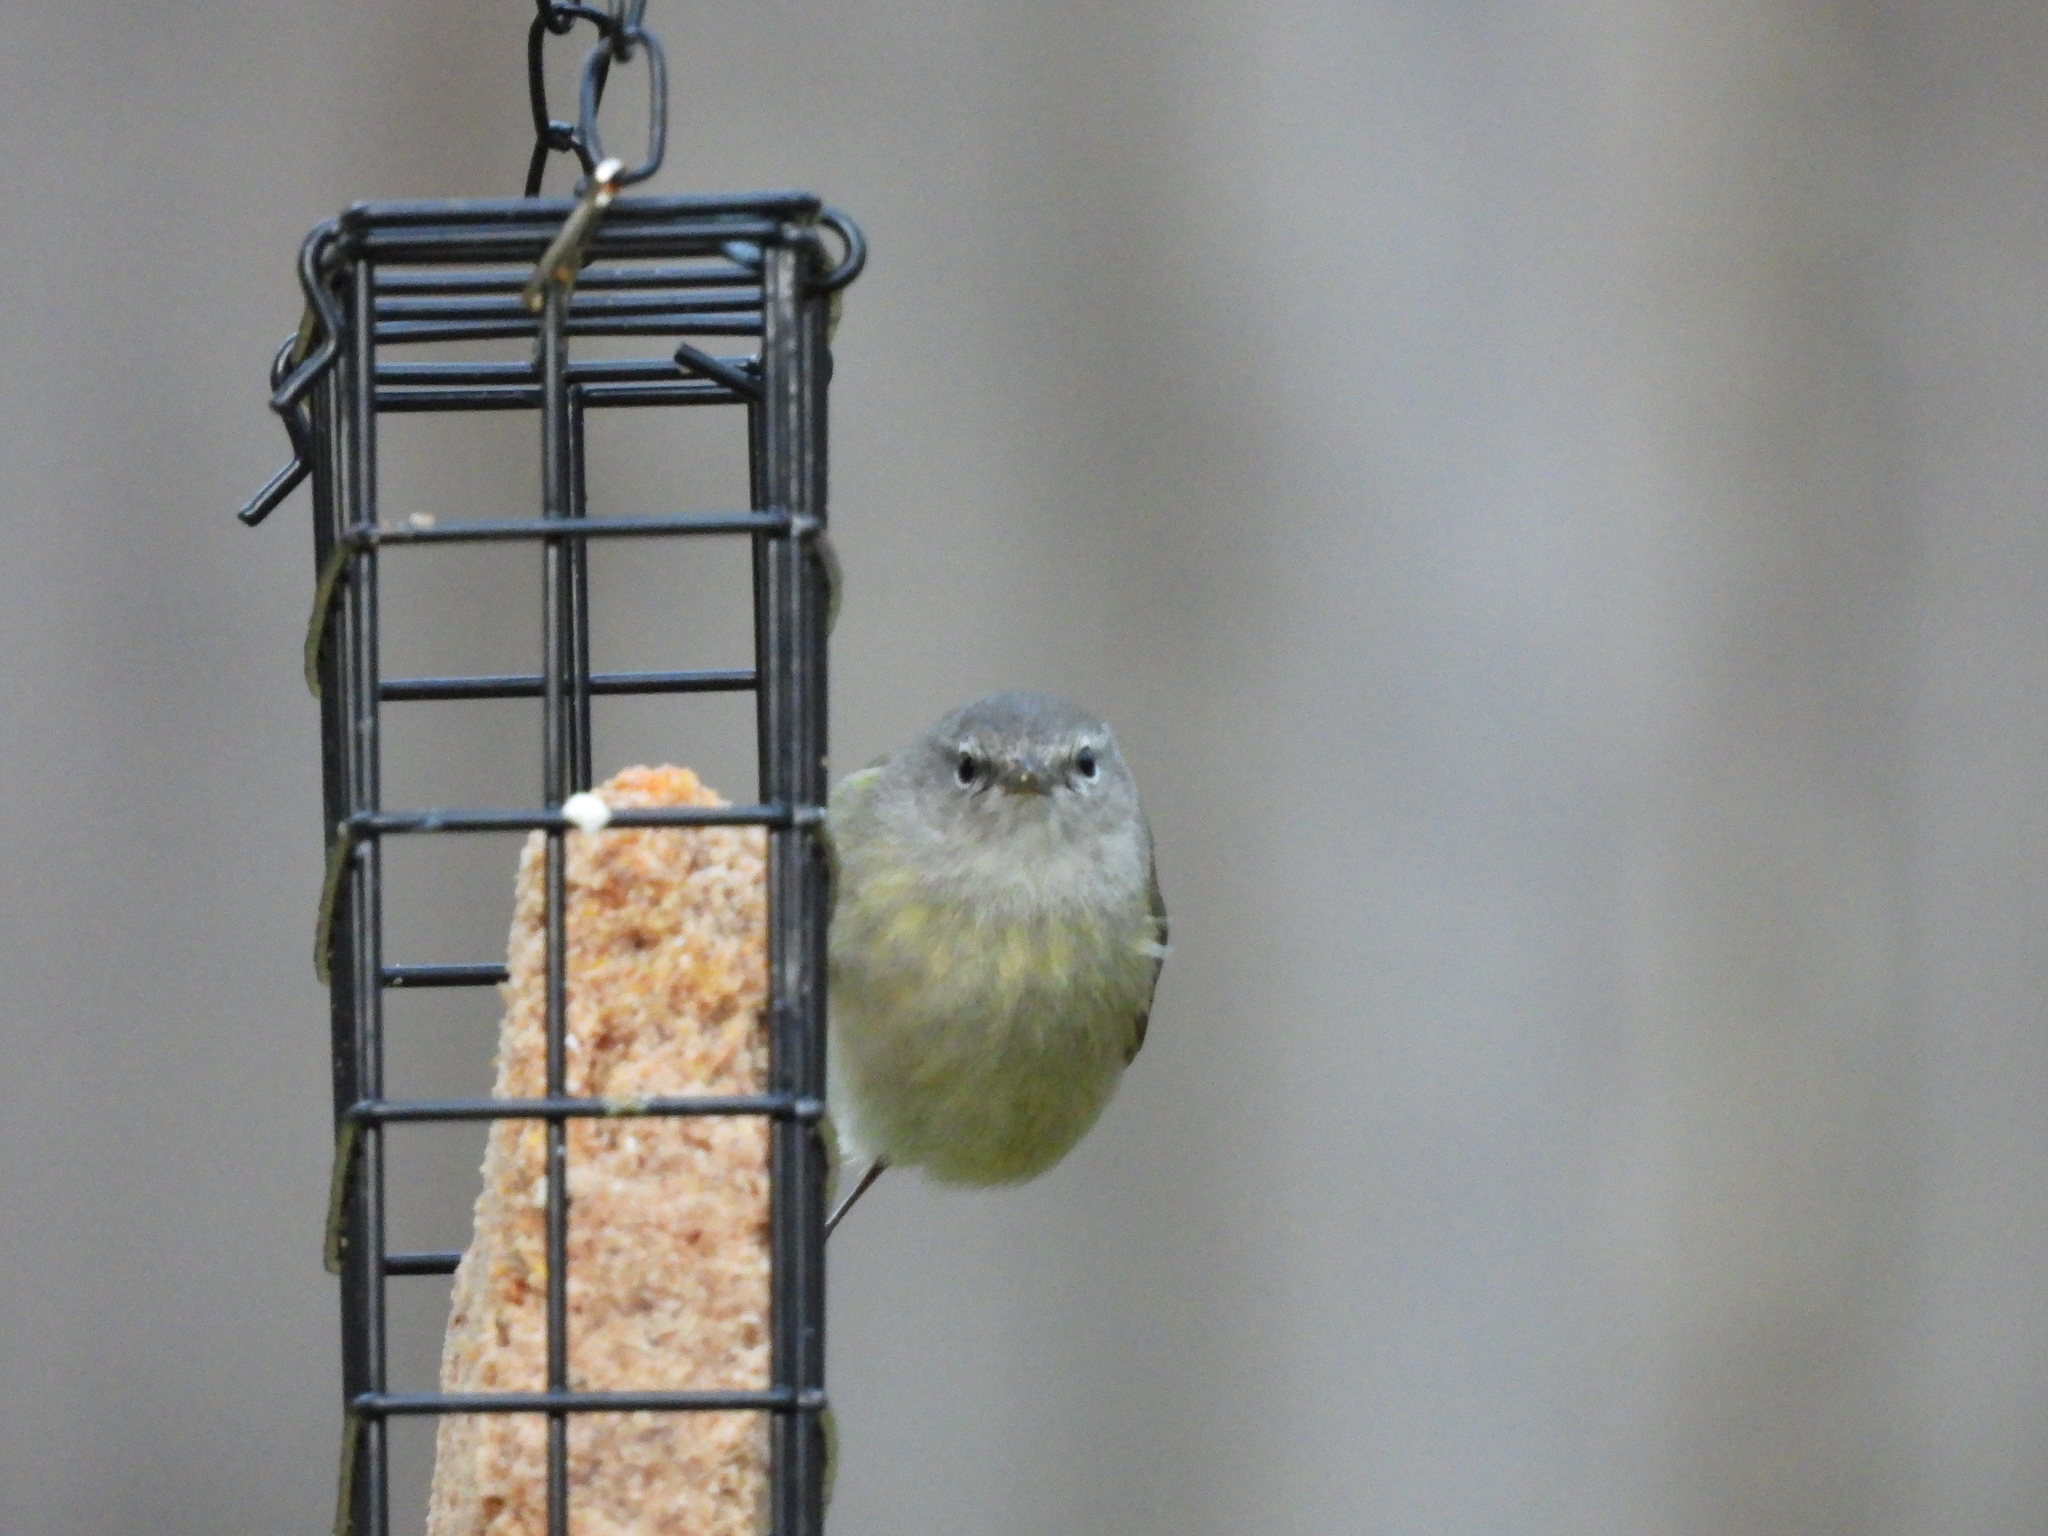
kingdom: Animalia
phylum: Chordata
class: Aves
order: Passeriformes
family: Parulidae
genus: Leiothlypis
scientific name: Leiothlypis celata
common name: Orange-crowned warbler
